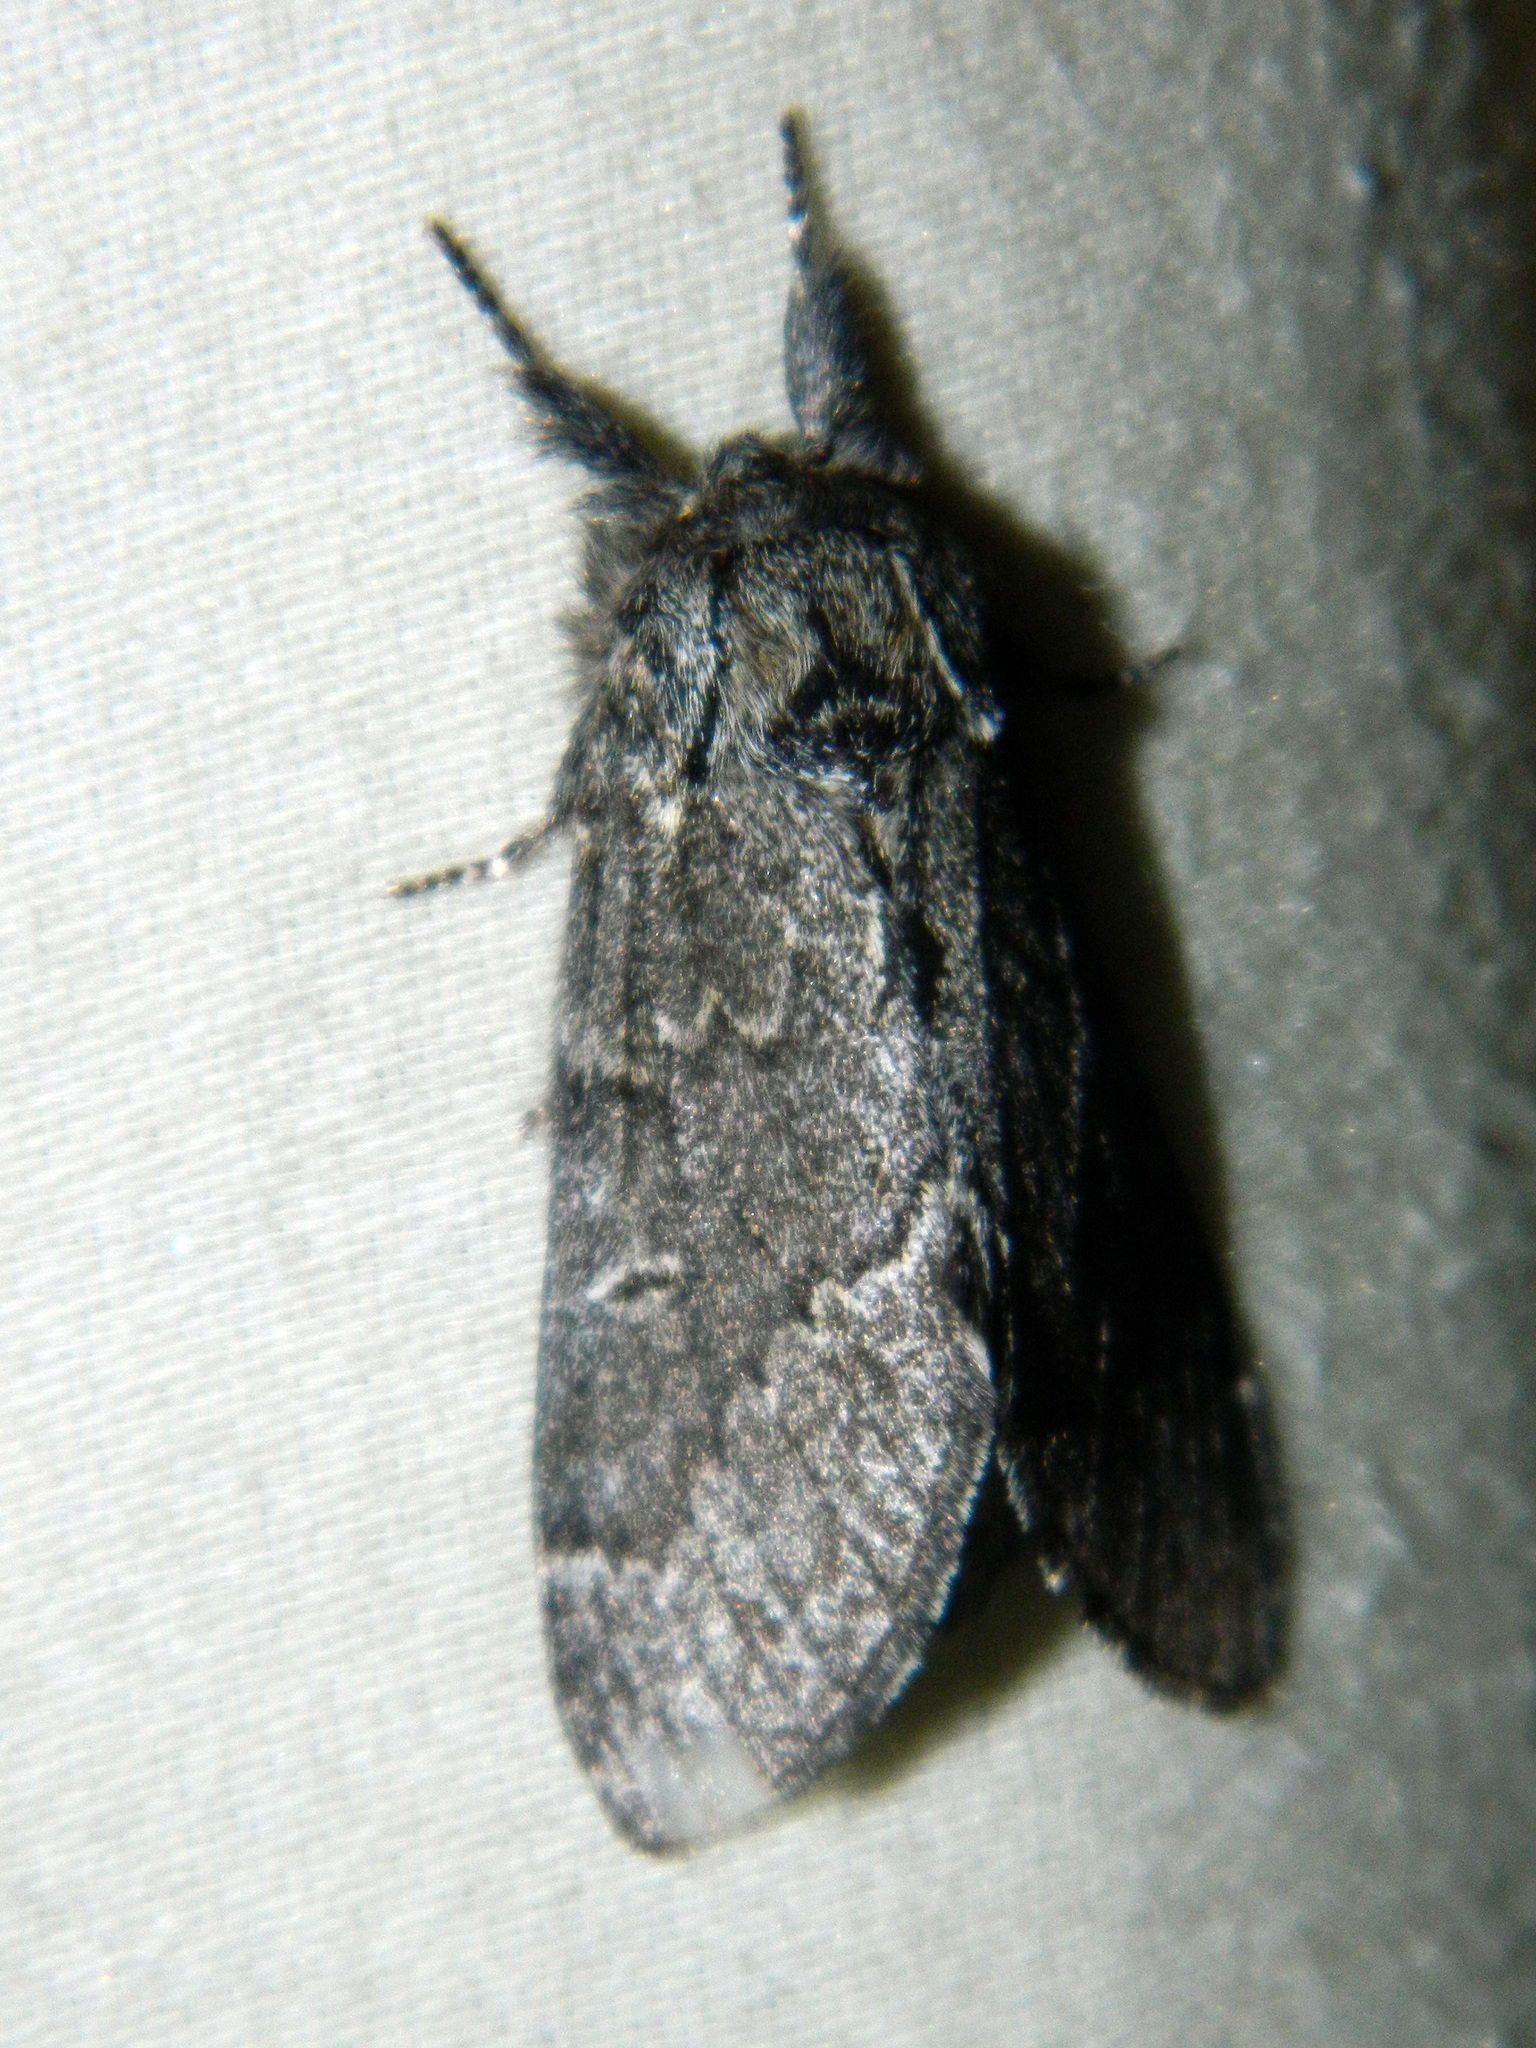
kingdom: Animalia
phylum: Arthropoda
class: Insecta
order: Lepidoptera
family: Notodontidae
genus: Notodonta
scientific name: Notodonta torva
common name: Large dark prominent
